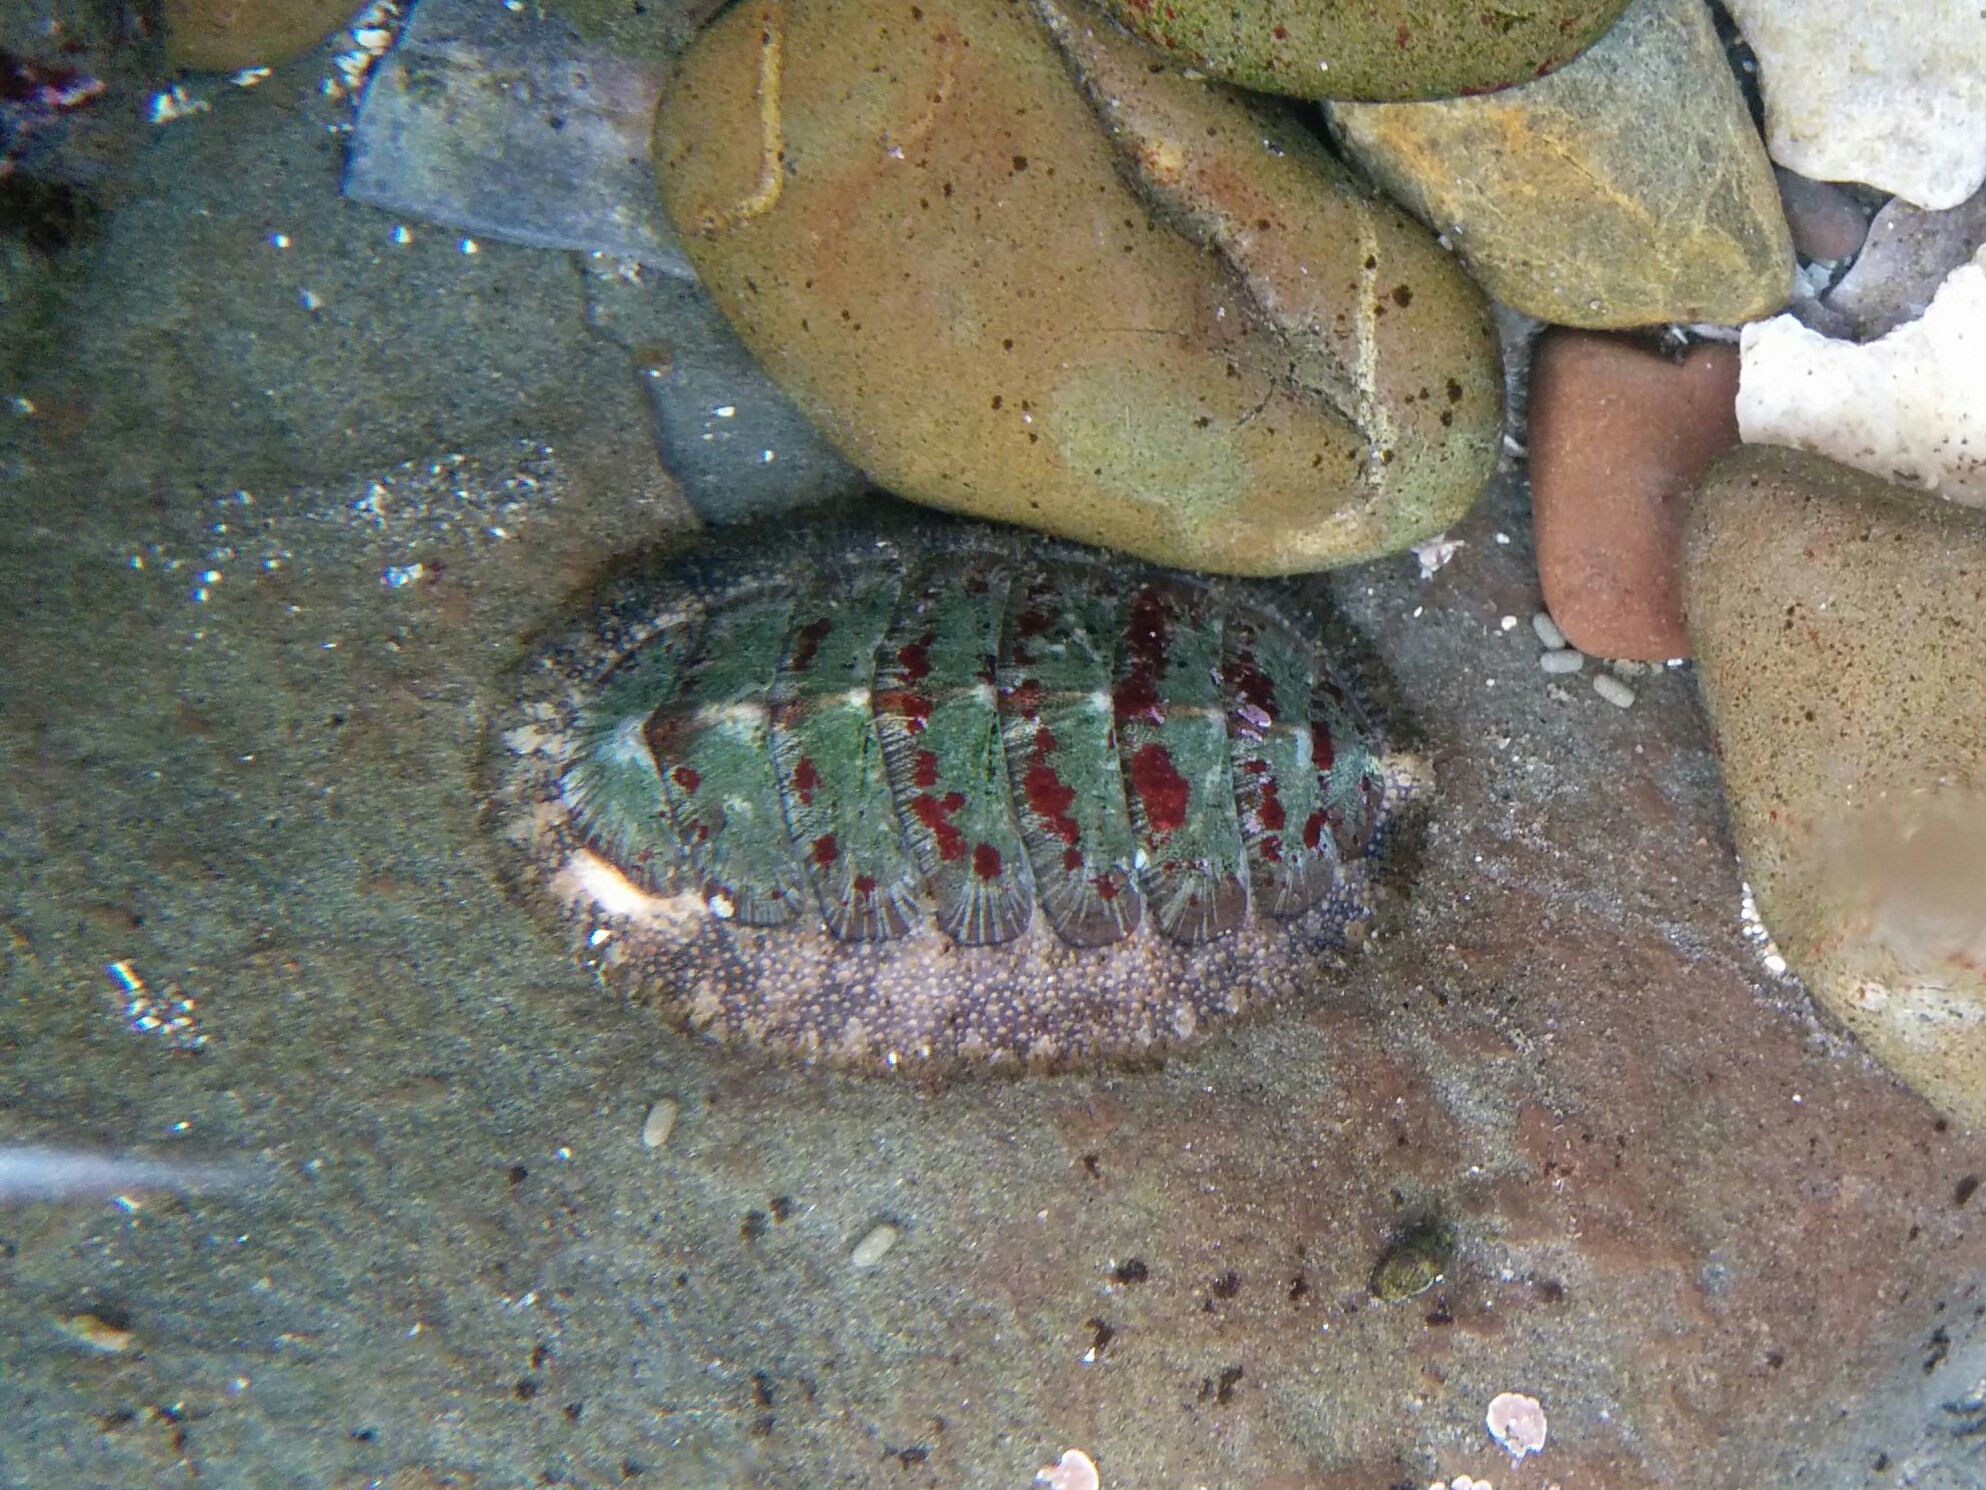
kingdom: Animalia
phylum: Mollusca
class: Polyplacophora
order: Chitonida
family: Mopaliidae
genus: Mopalia
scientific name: Mopalia lignosa
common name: Woody chiton
